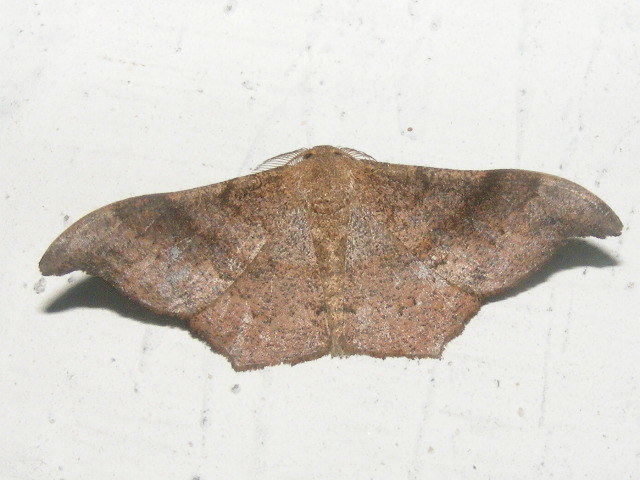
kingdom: Animalia
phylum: Arthropoda
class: Insecta
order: Lepidoptera
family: Geometridae
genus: Hyposidra
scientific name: Hyposidra talaca
